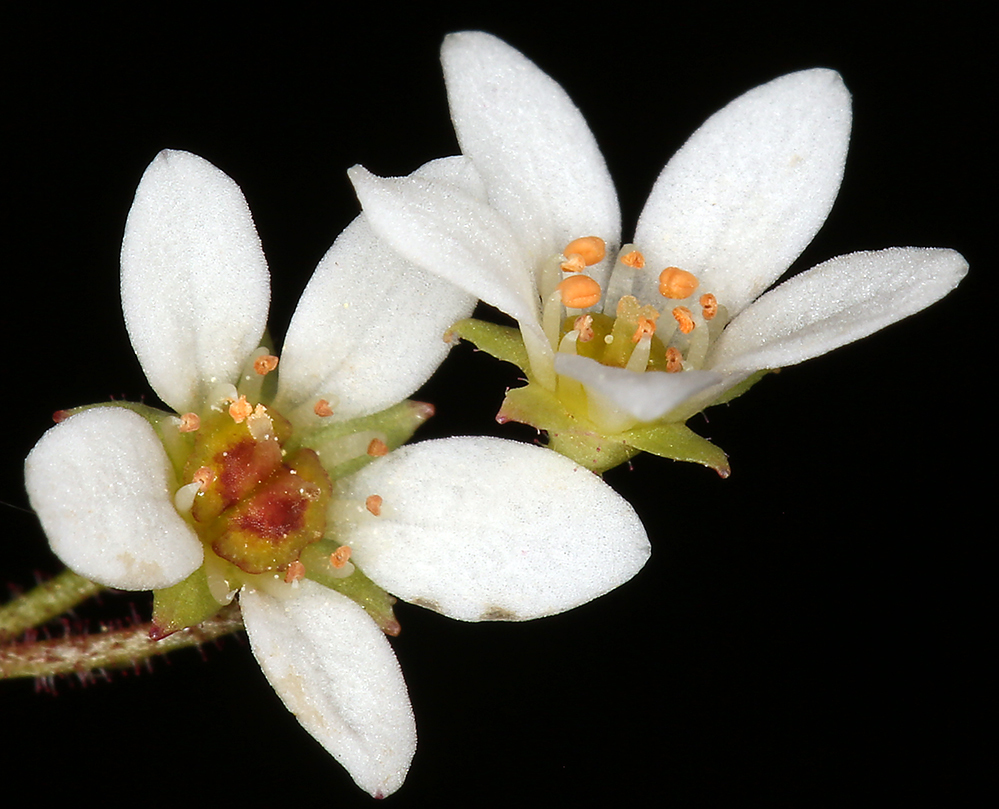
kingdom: Plantae
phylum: Tracheophyta
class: Magnoliopsida
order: Saxifragales
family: Saxifragaceae
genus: Micranthes
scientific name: Micranthes californica
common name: California saxifrage
